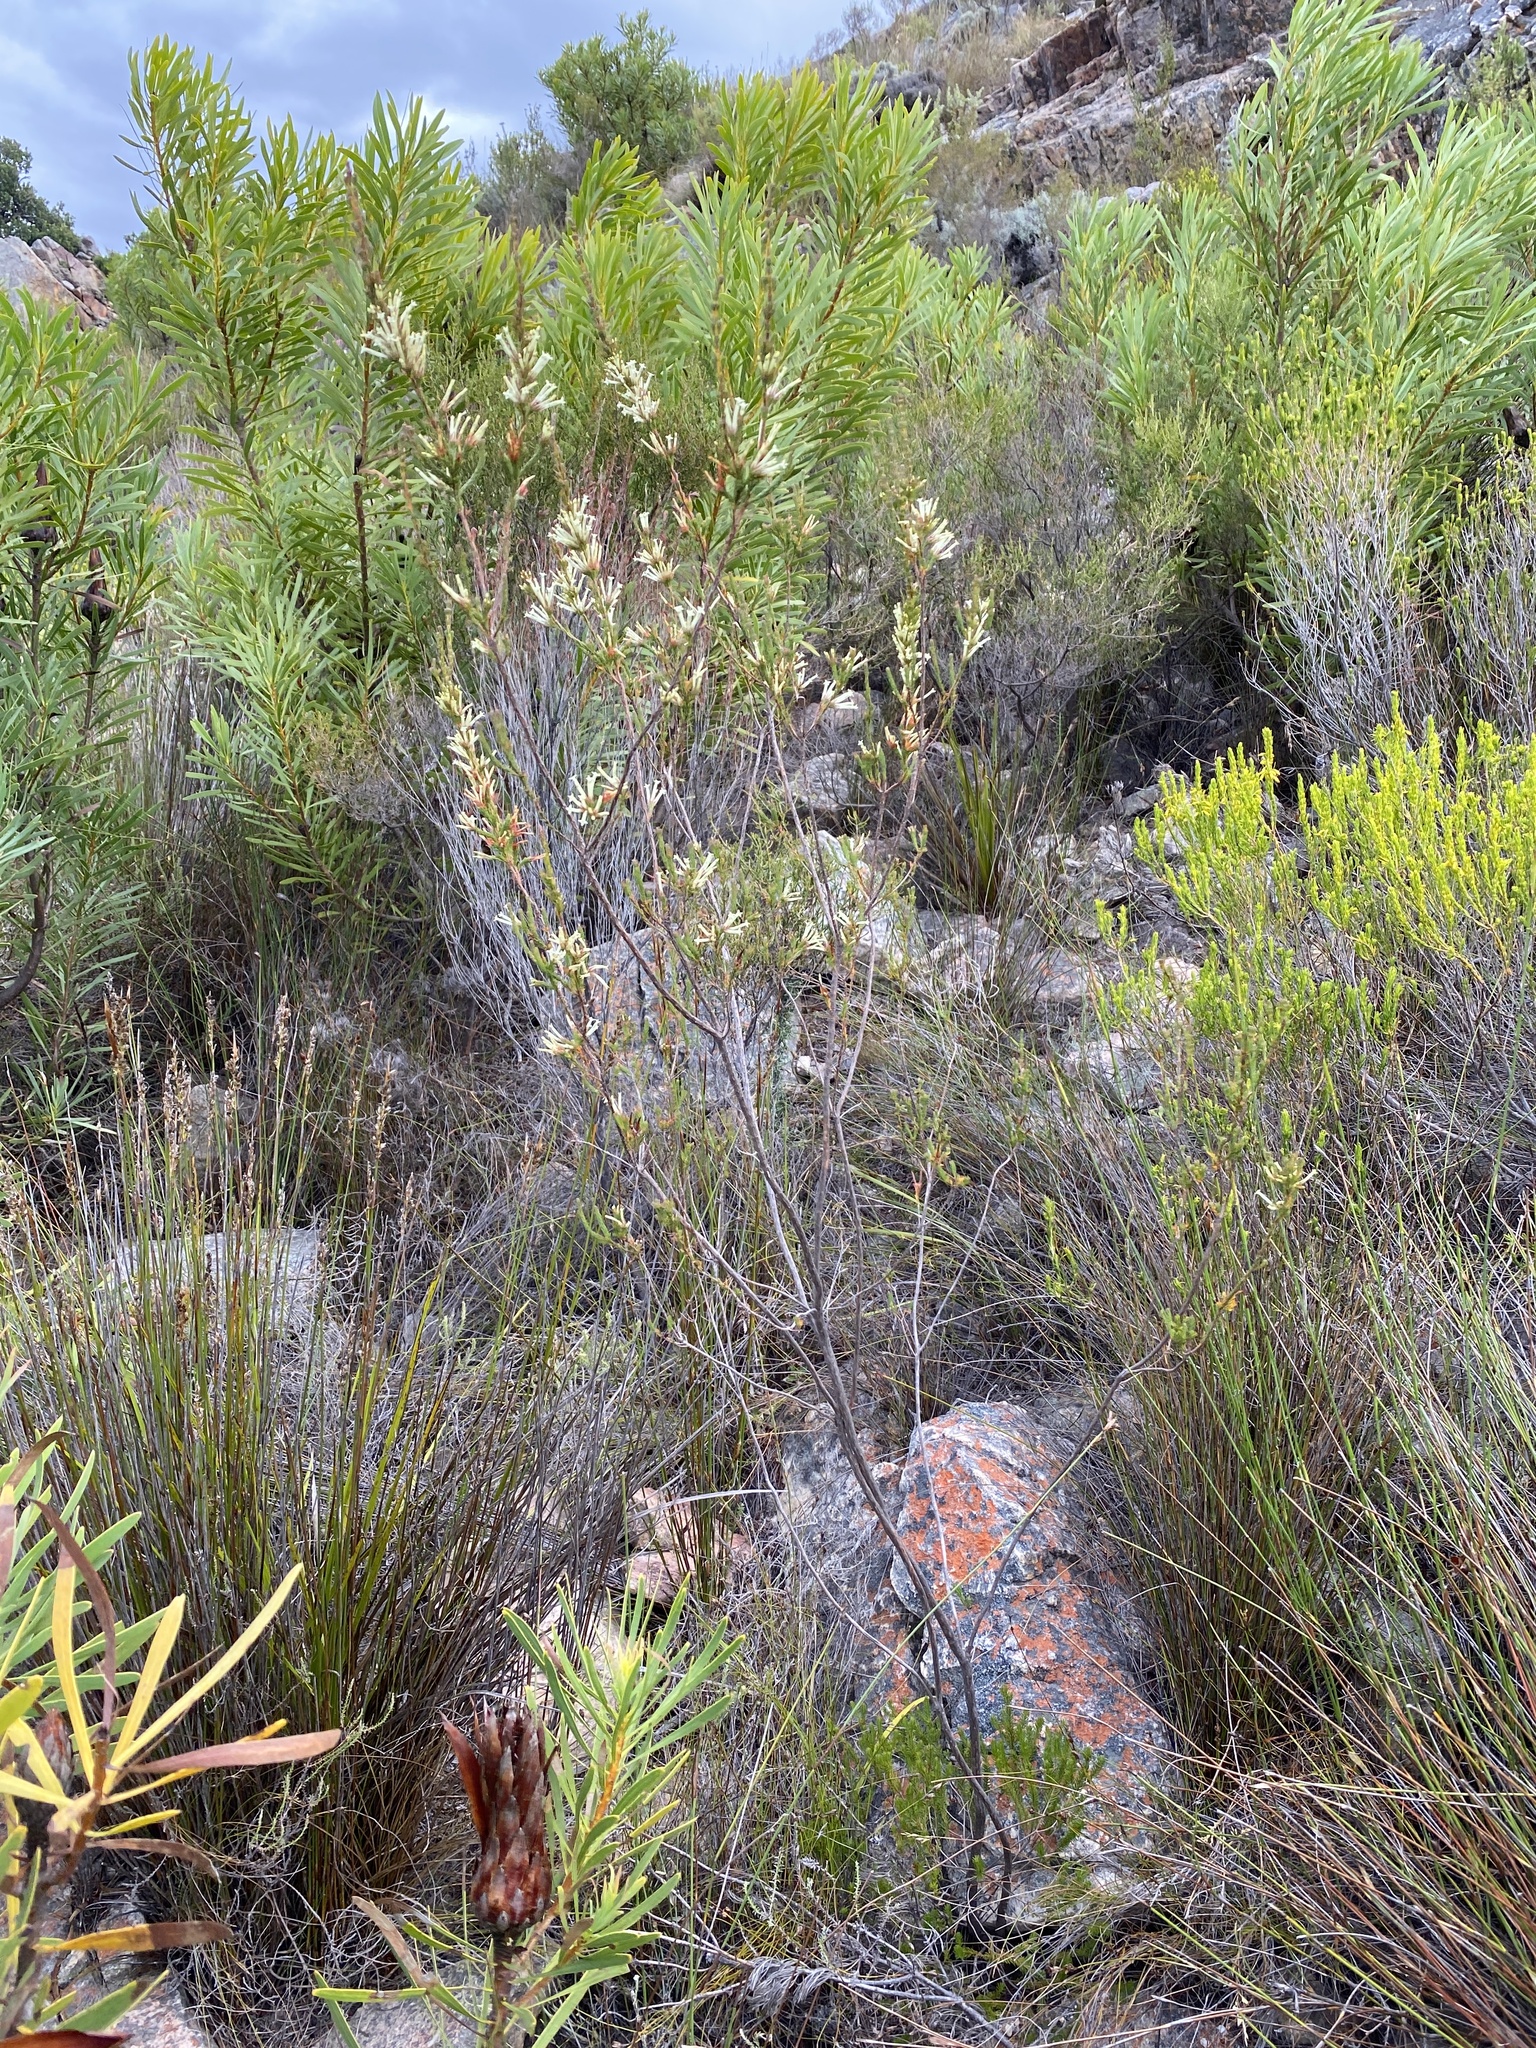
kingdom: Plantae
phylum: Tracheophyta
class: Magnoliopsida
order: Ericales
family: Ericaceae
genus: Erica
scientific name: Erica cylindrica
